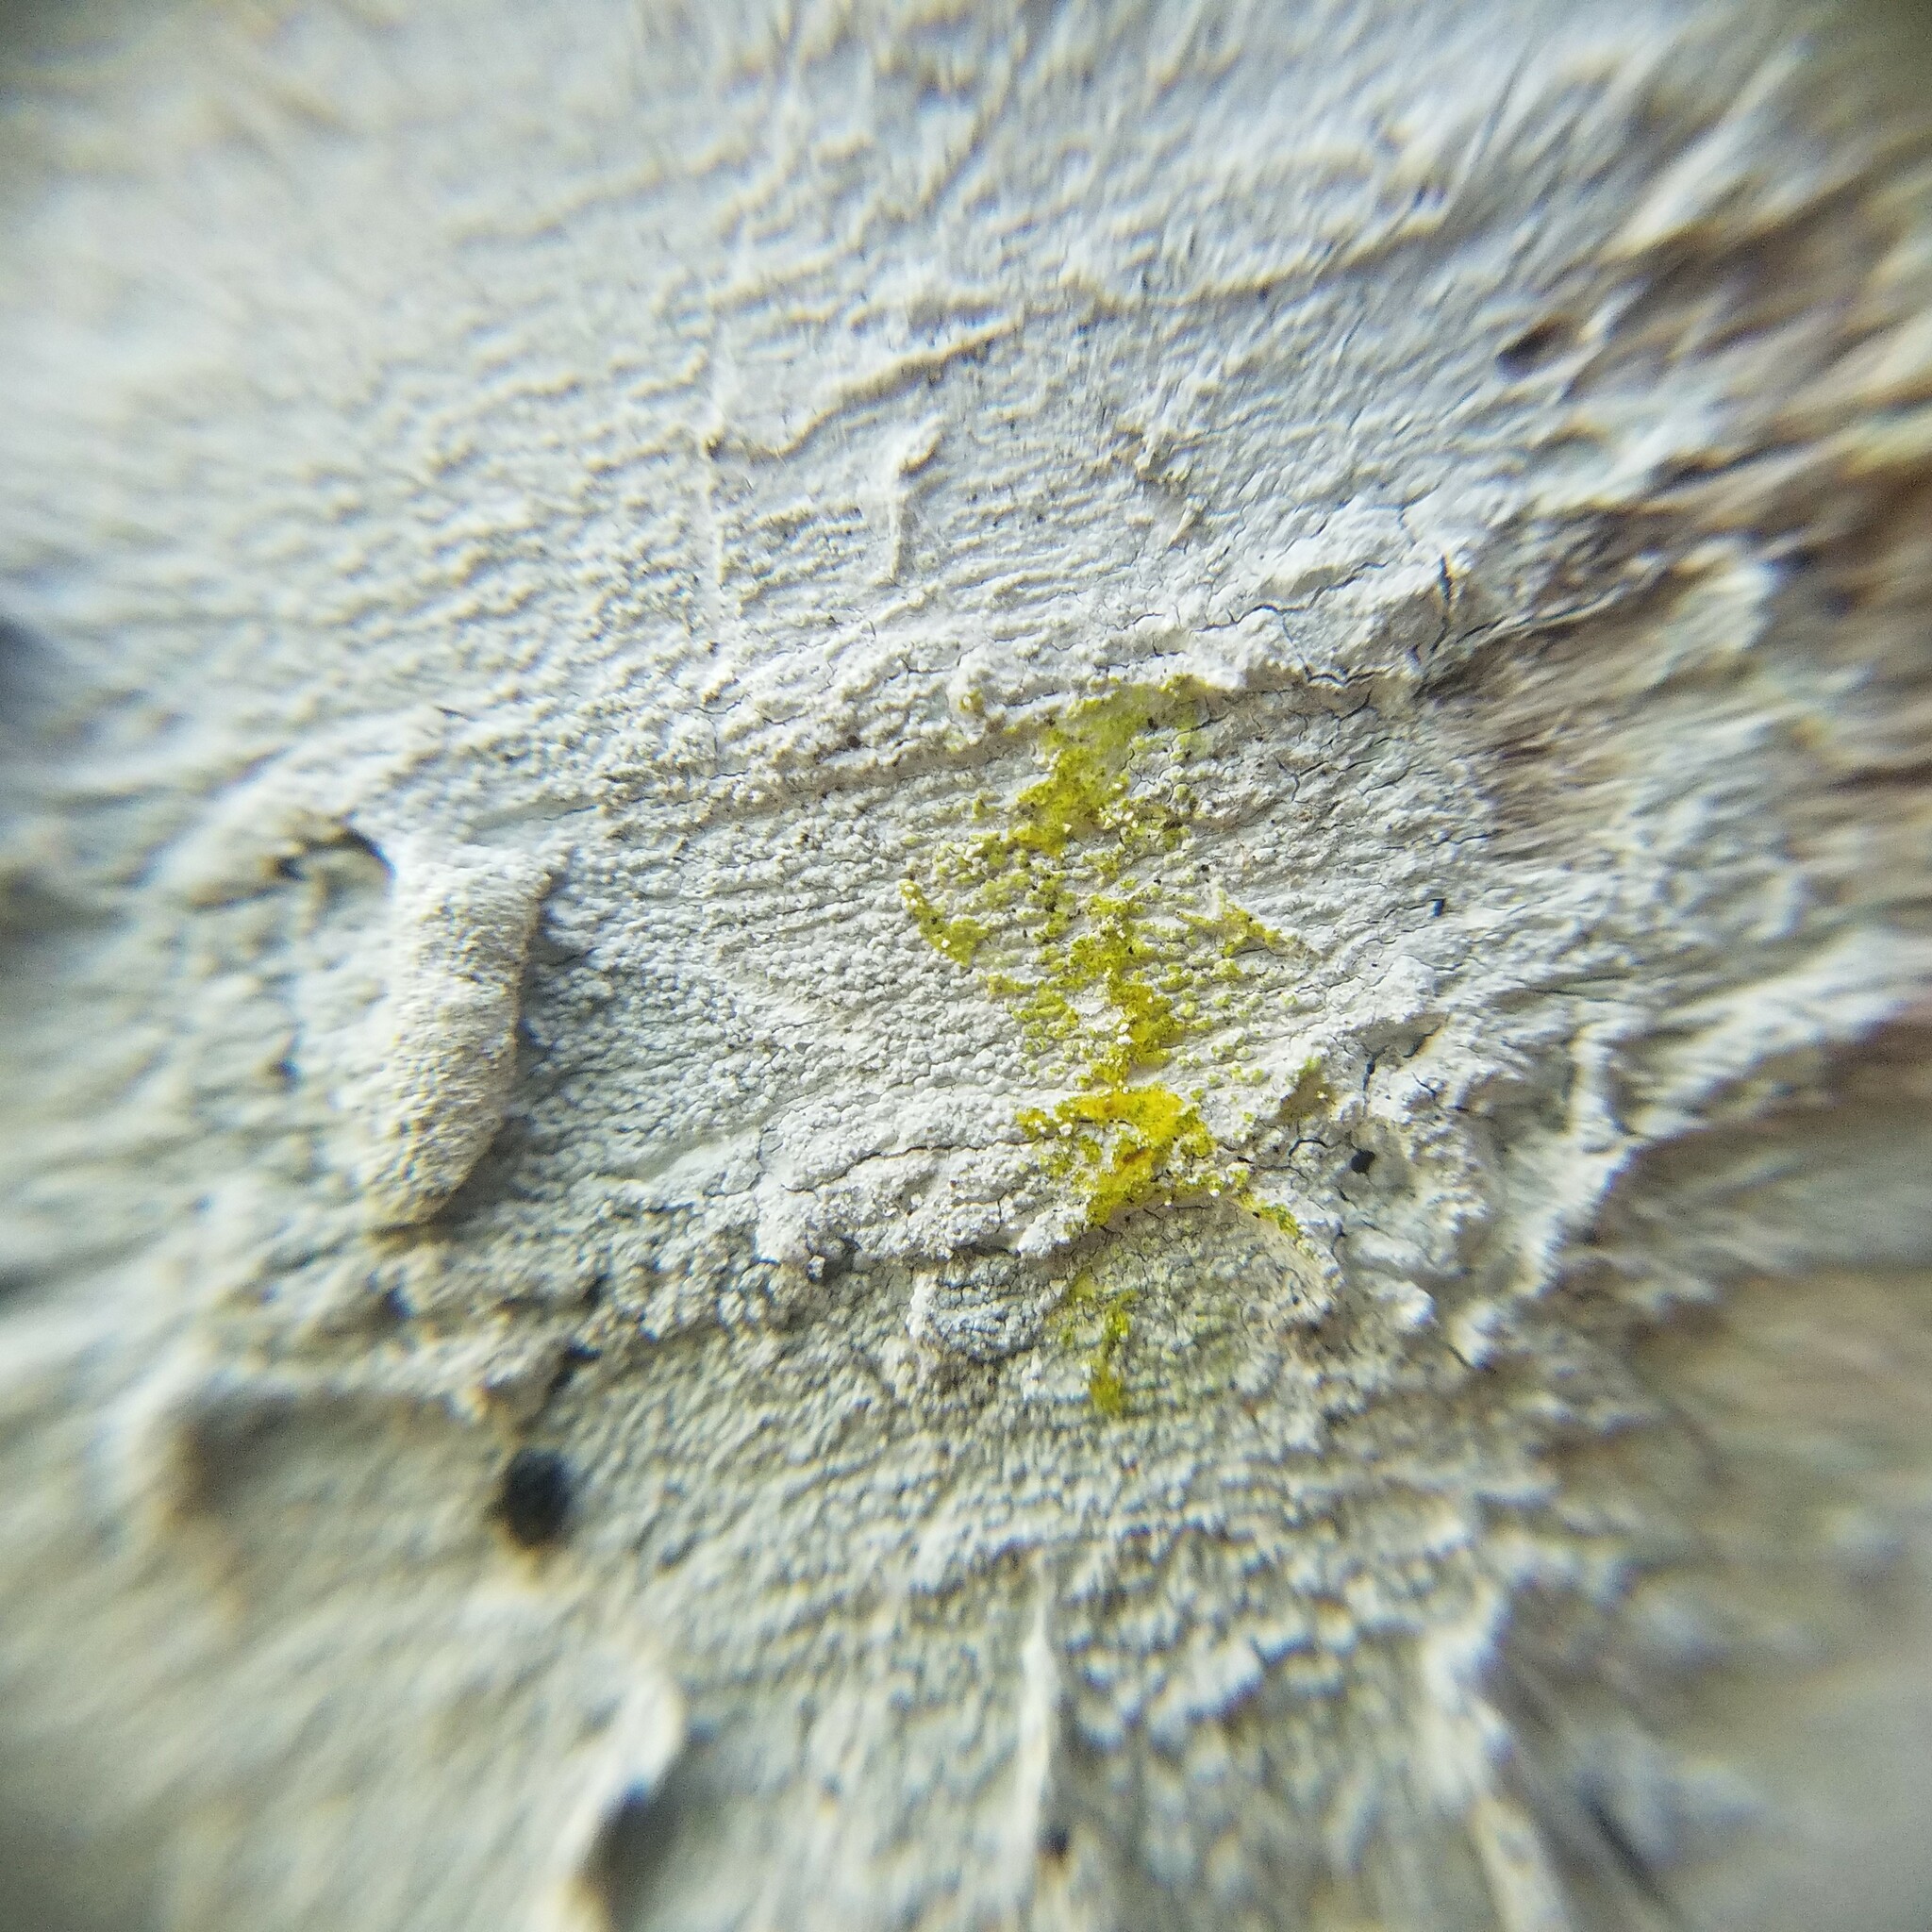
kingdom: Fungi
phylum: Ascomycota
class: Lecanoromycetes
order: Pertusariales
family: Pertusariaceae
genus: Lepra
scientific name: Lepra pustulata
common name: Pustule crust lichen
